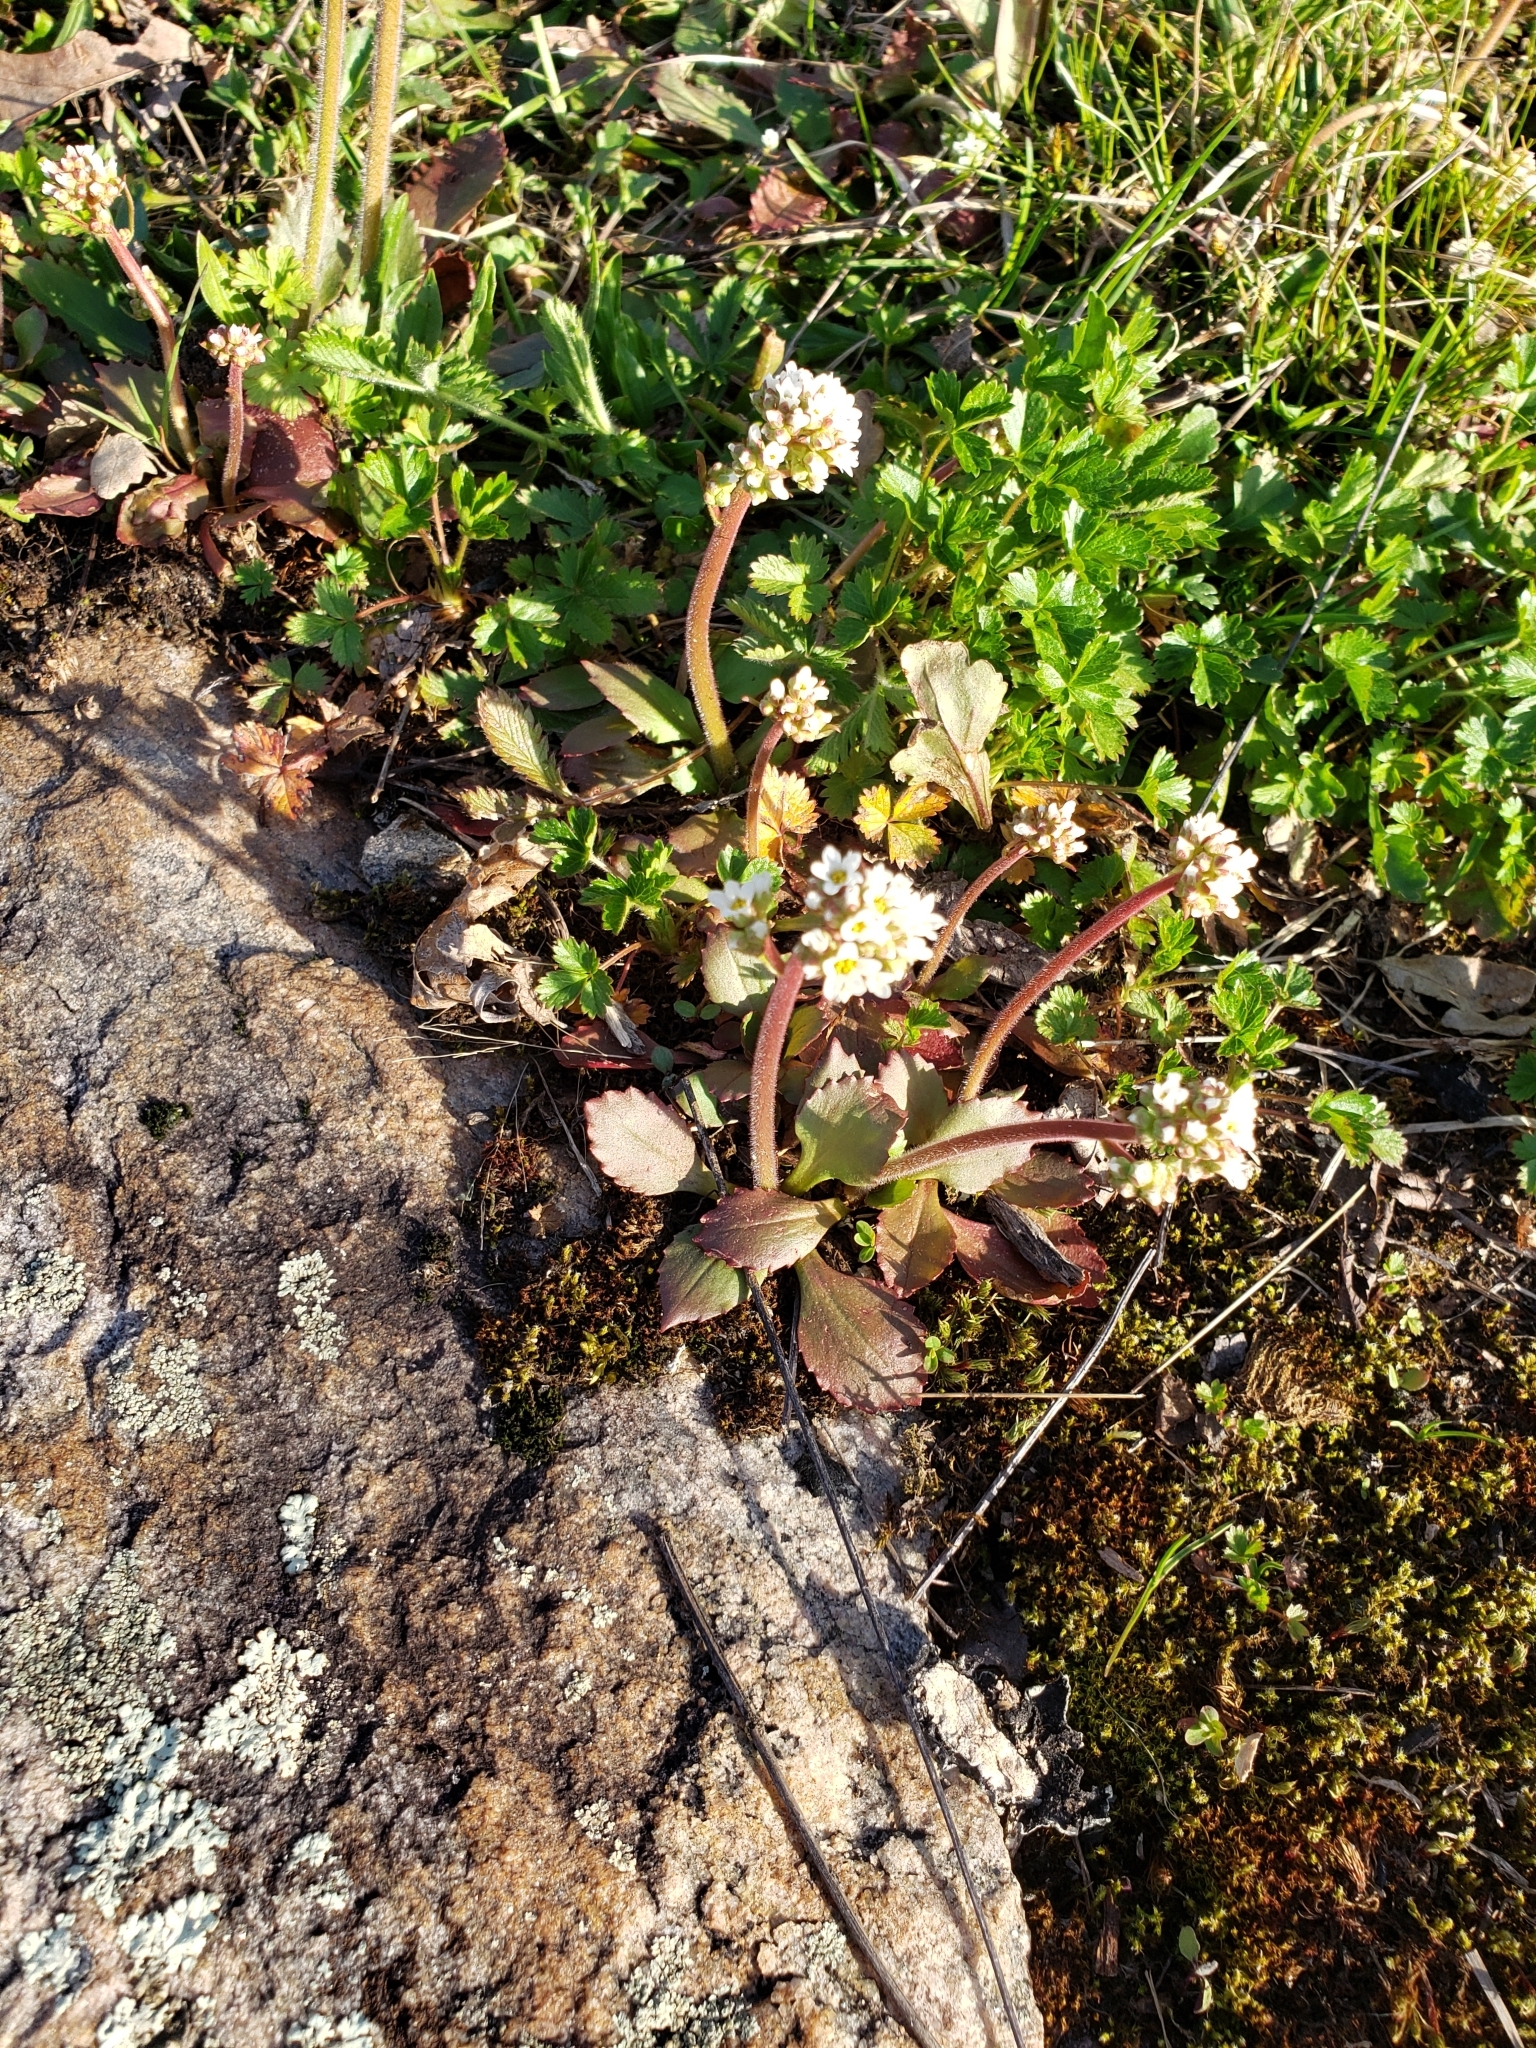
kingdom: Plantae
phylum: Tracheophyta
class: Magnoliopsida
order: Saxifragales
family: Saxifragaceae
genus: Micranthes
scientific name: Micranthes virginiensis
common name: Early saxifrage
